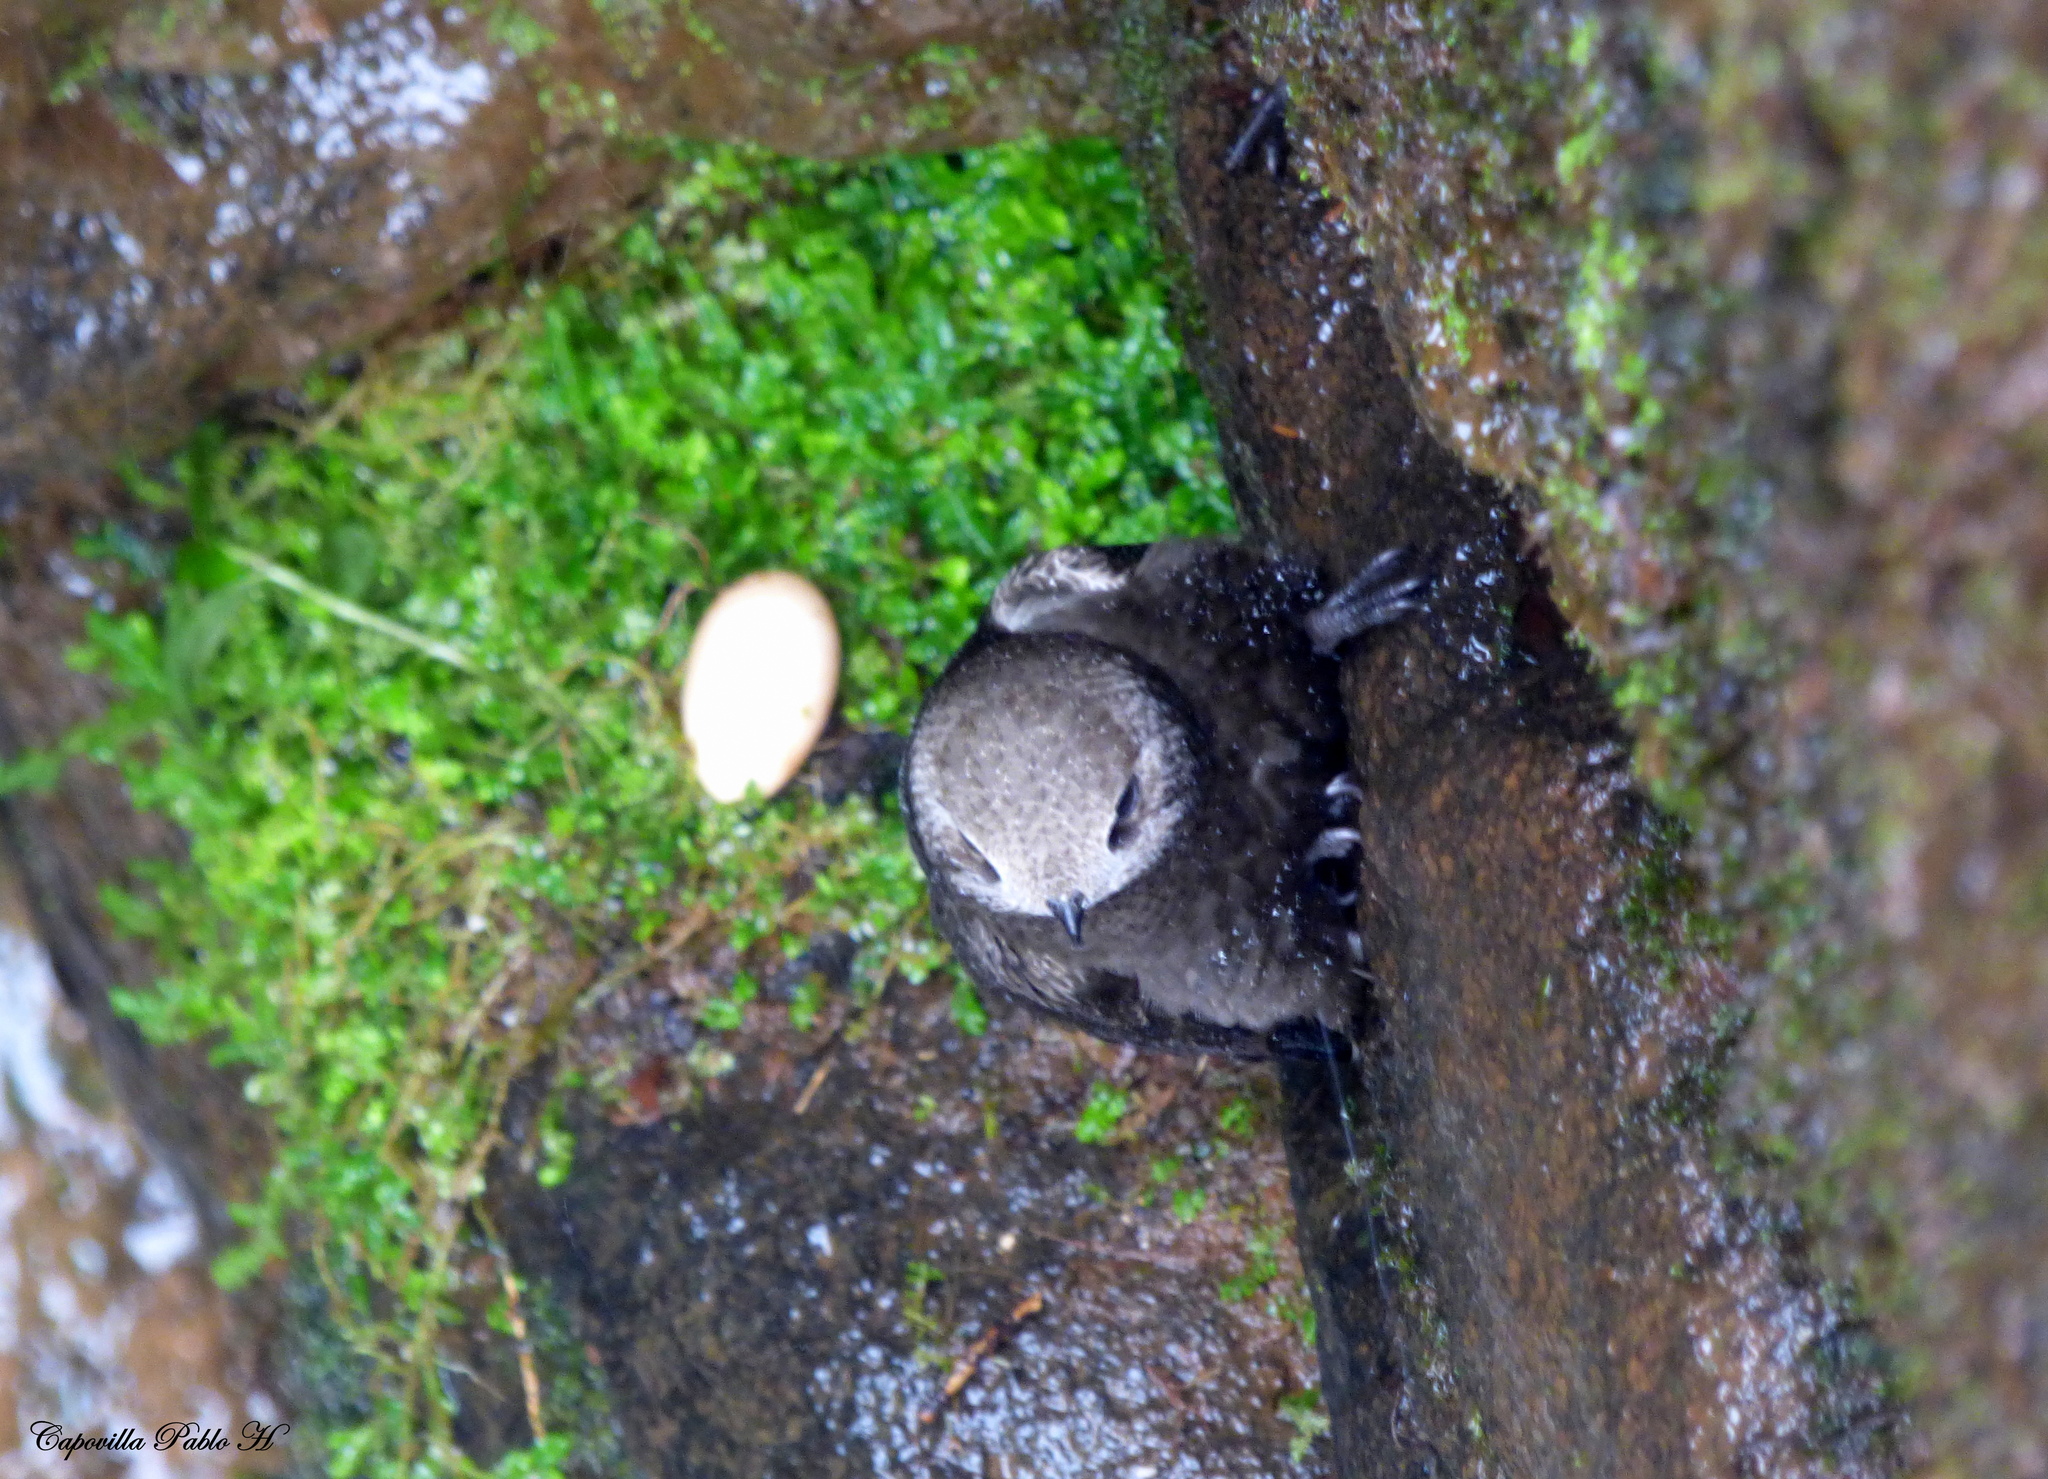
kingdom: Animalia
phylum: Chordata
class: Aves
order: Apodiformes
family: Apodidae
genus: Cypseloides
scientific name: Cypseloides senex
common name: Great dusky swift
